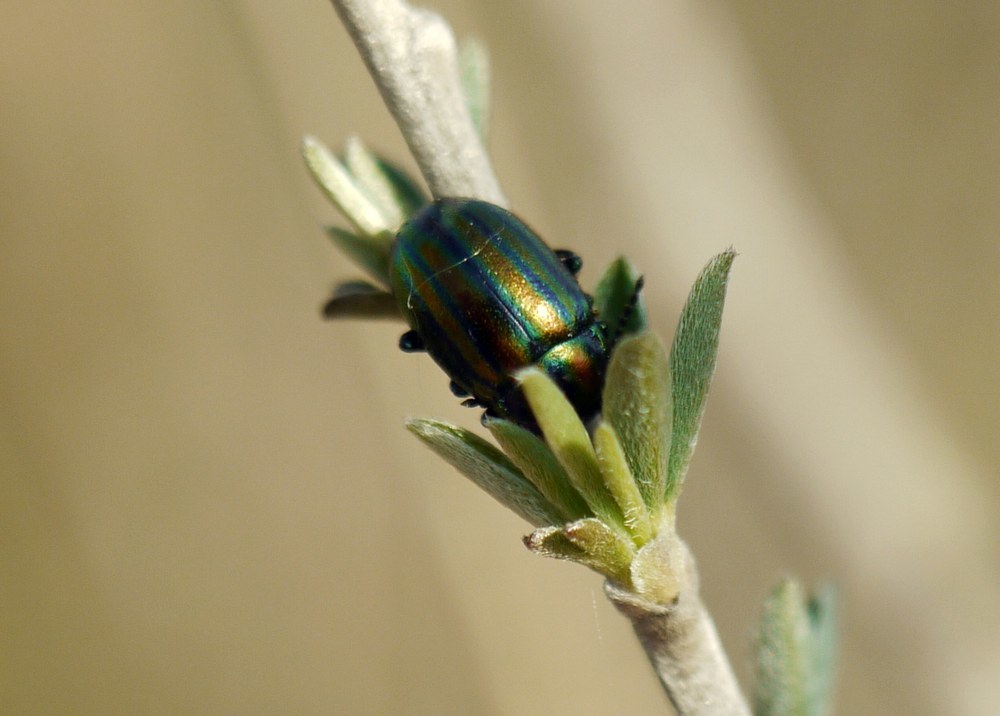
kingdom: Animalia
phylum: Arthropoda
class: Insecta
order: Coleoptera
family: Chrysomelidae
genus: Chrysolina
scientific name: Chrysolina cerealis
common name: Rainbow leaf beetle
